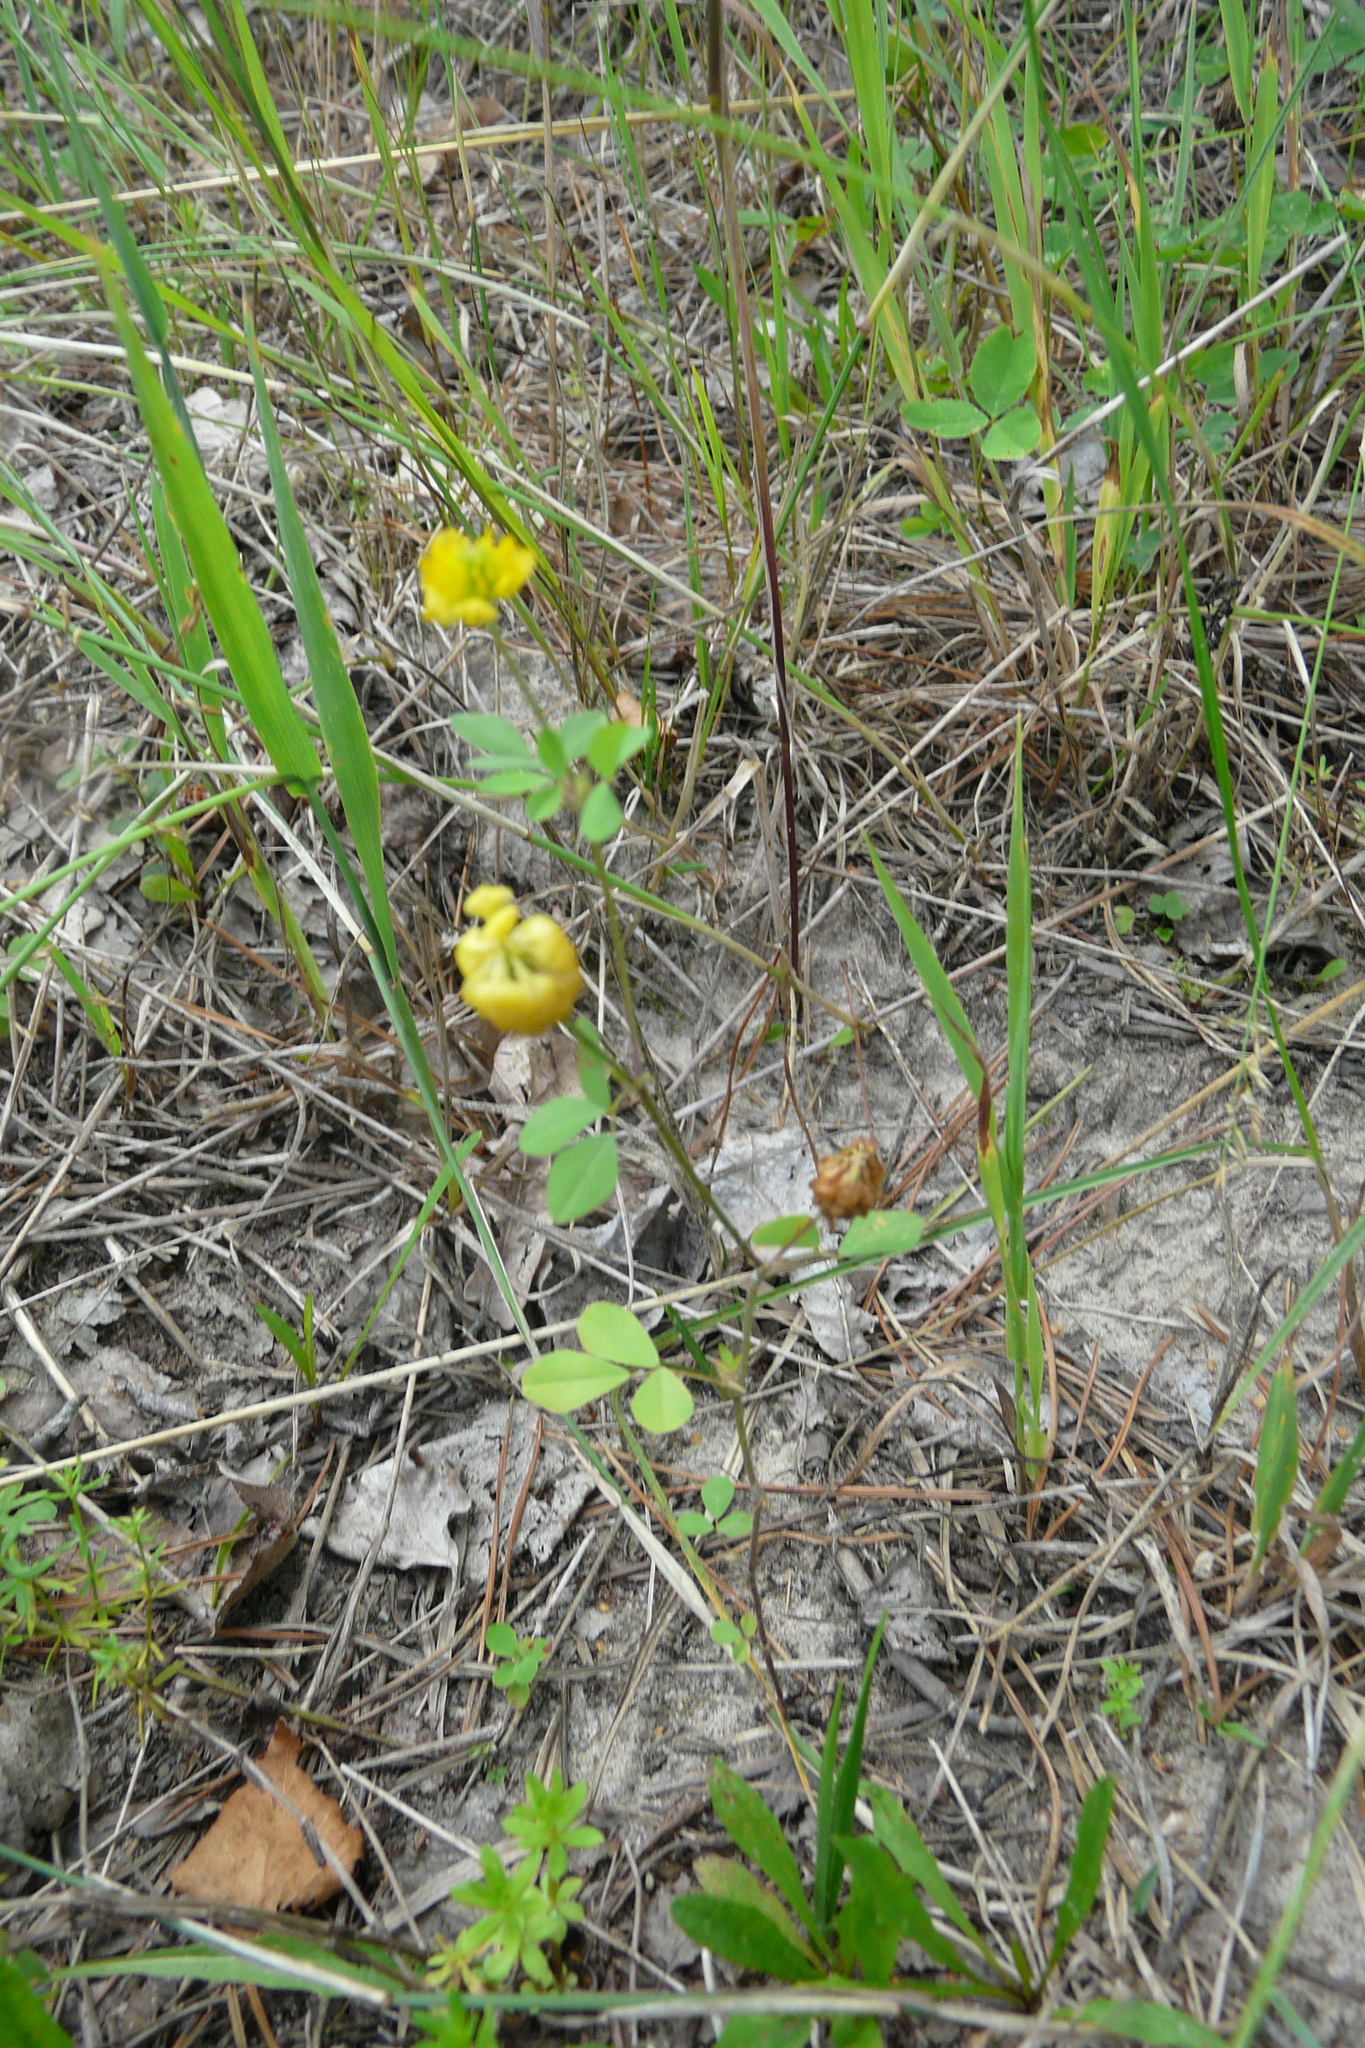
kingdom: Plantae
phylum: Tracheophyta
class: Magnoliopsida
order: Fabales
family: Fabaceae
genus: Trifolium
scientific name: Trifolium campestre
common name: Field clover
